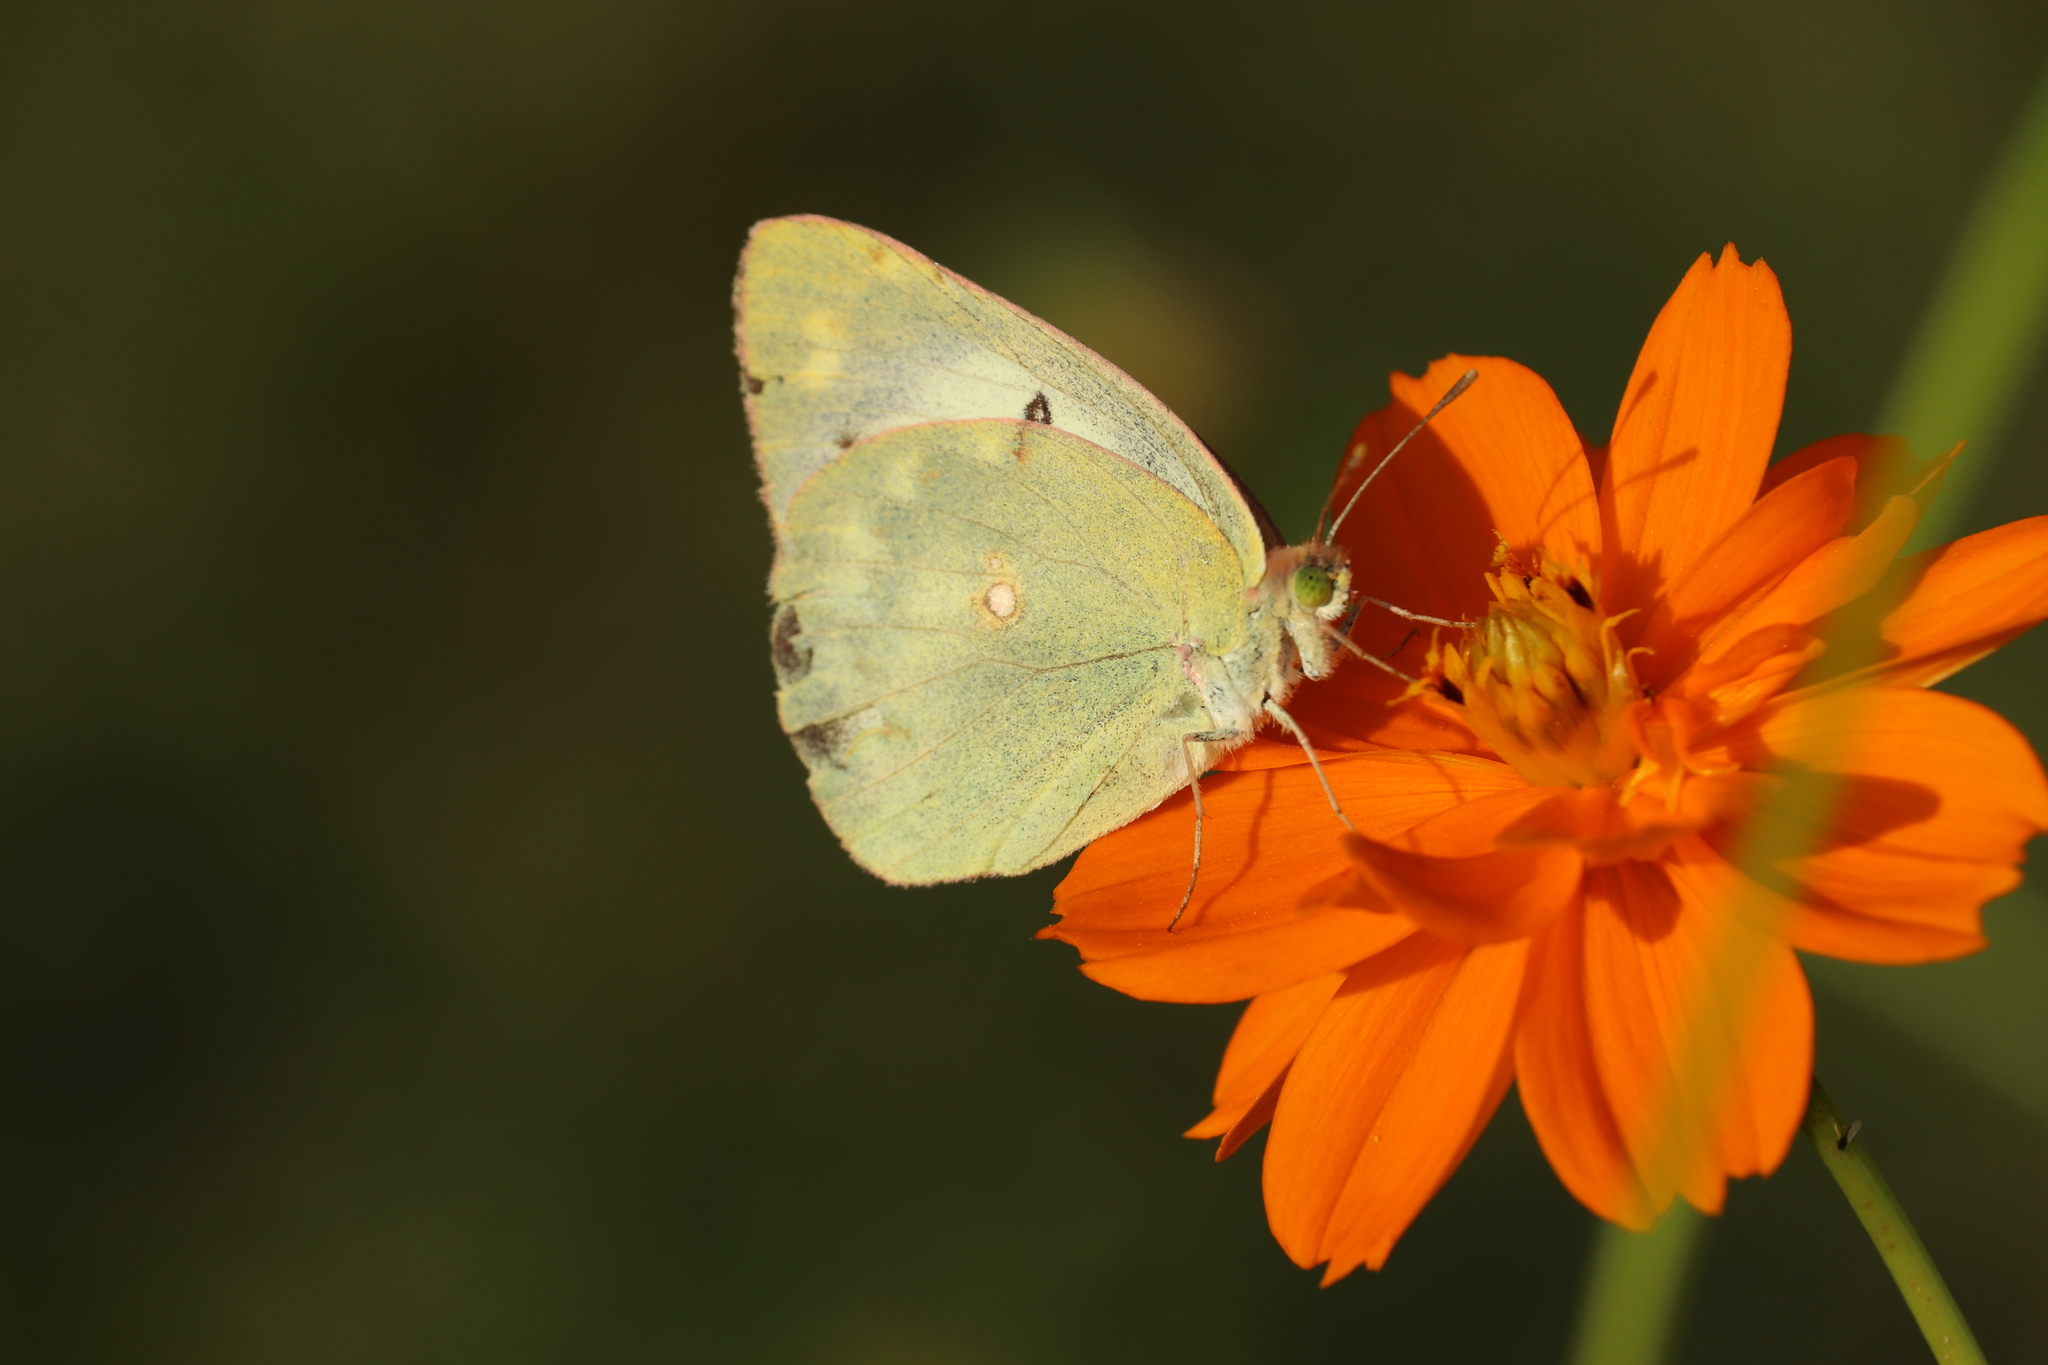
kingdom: Animalia
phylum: Arthropoda
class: Insecta
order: Lepidoptera
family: Pieridae
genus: Colias
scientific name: Colias poliographus
